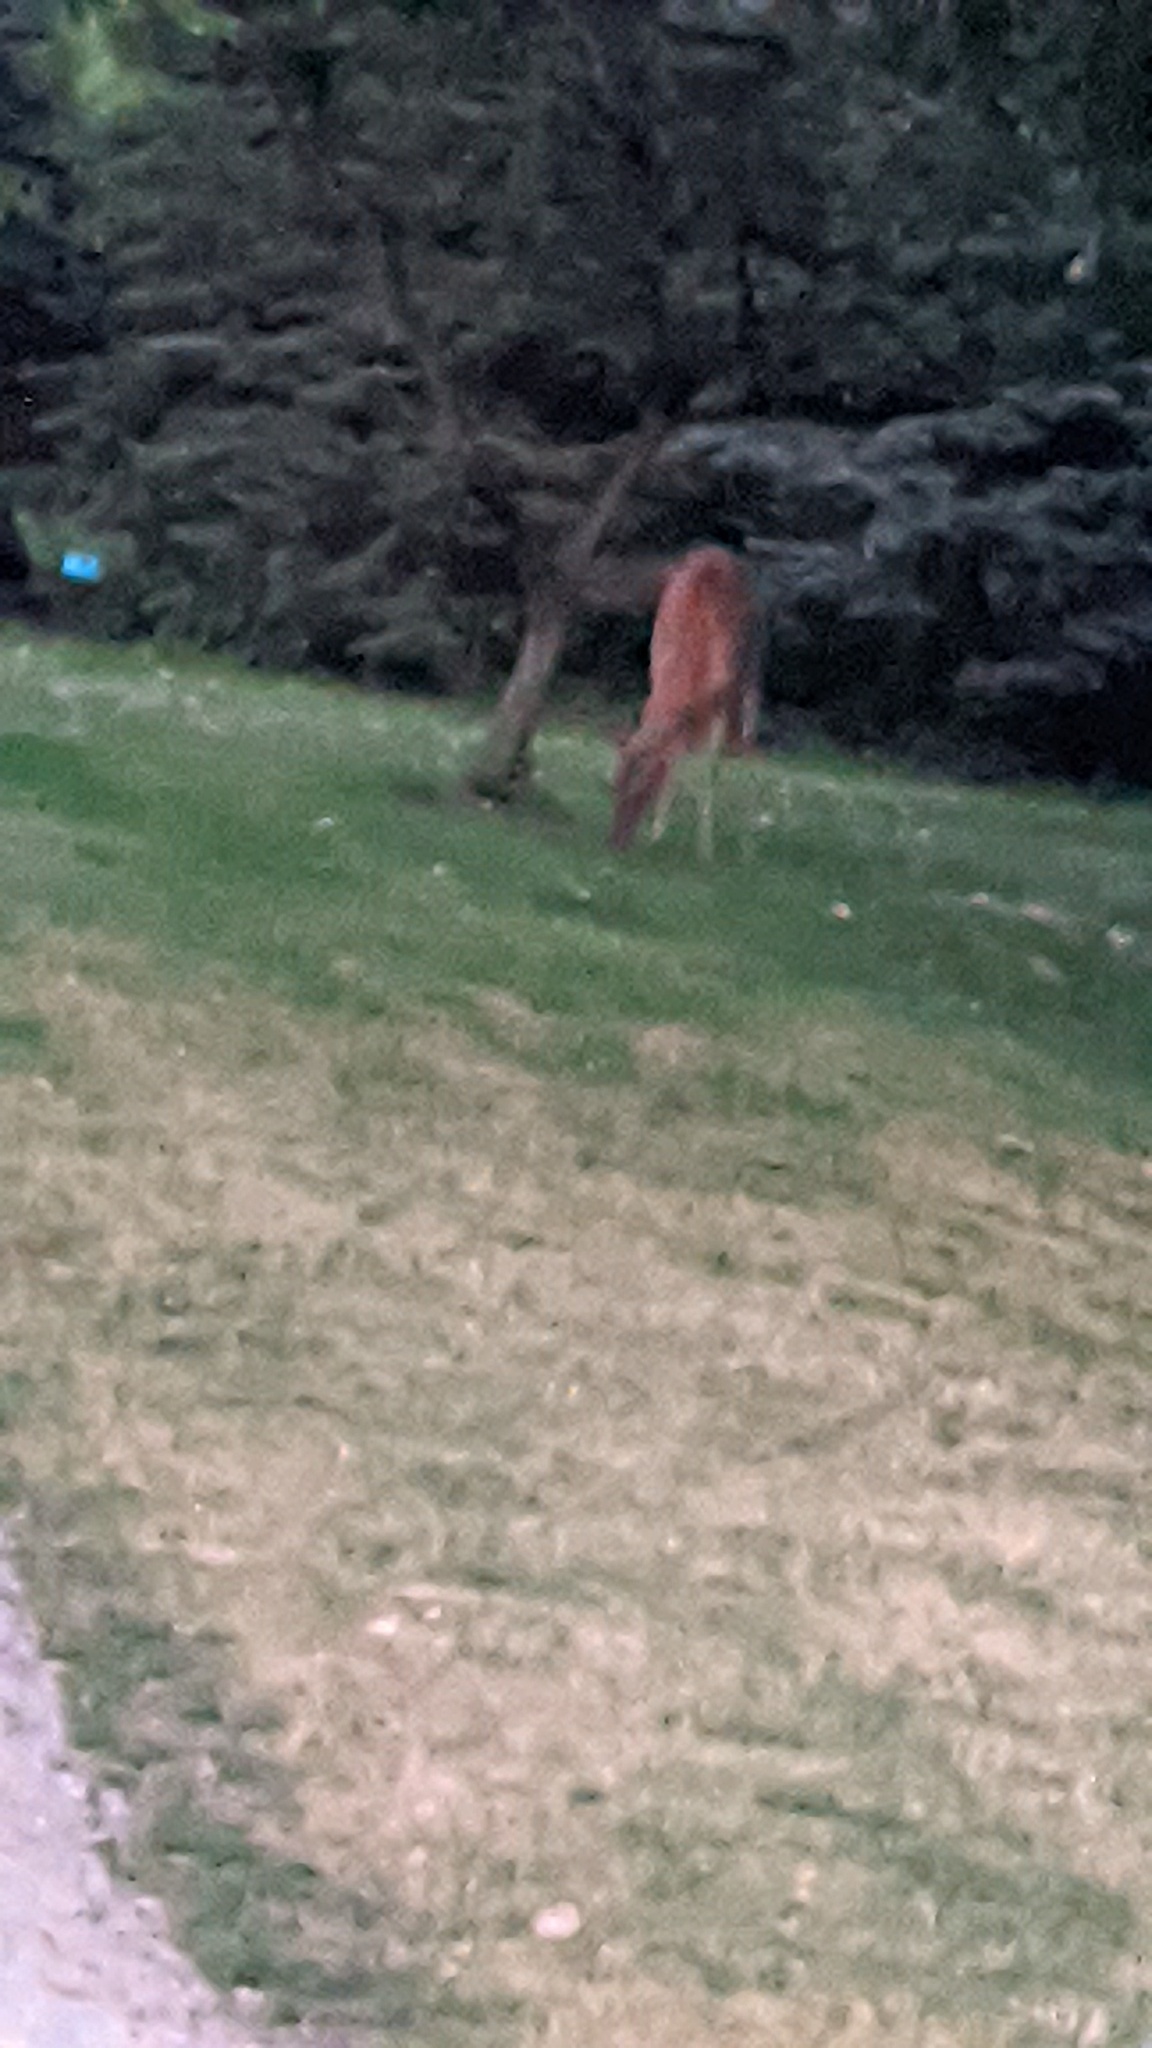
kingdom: Animalia
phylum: Chordata
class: Mammalia
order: Artiodactyla
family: Cervidae
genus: Odocoileus
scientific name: Odocoileus virginianus
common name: White-tailed deer
